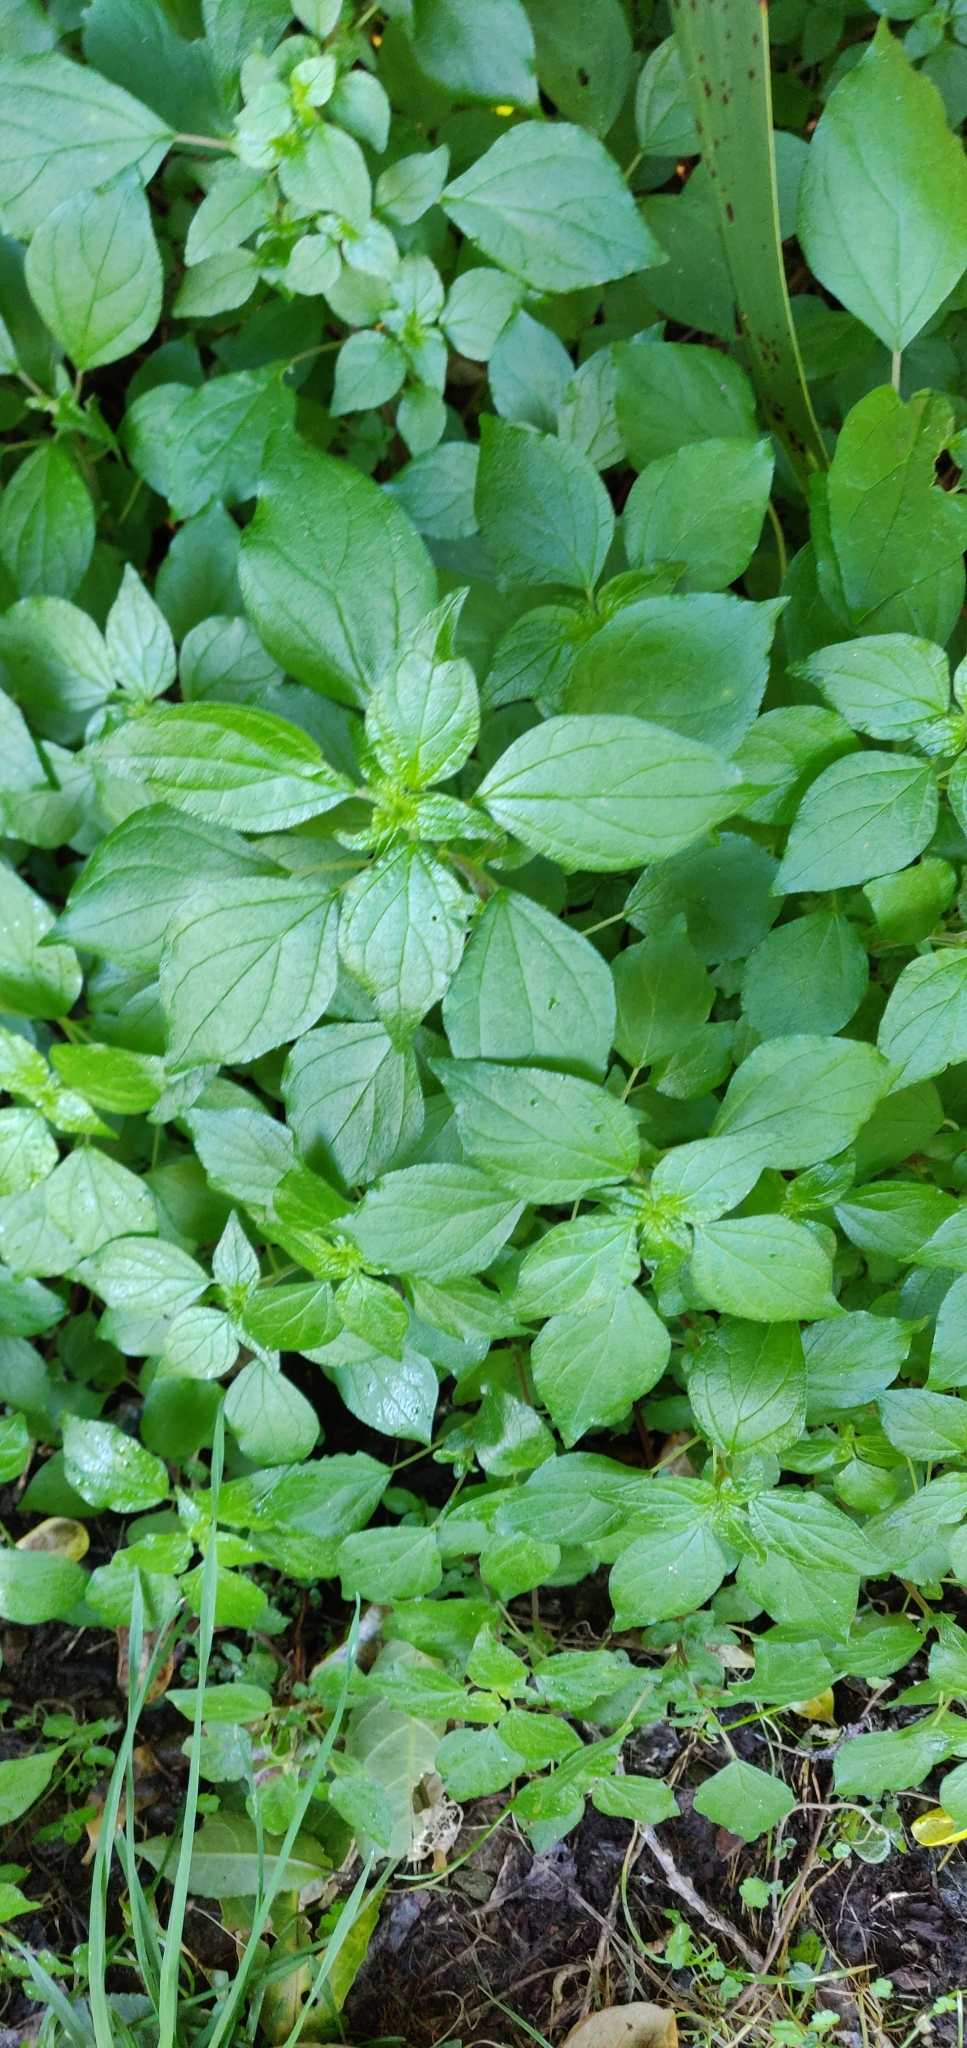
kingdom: Plantae
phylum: Tracheophyta
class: Magnoliopsida
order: Rosales
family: Urticaceae
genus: Parietaria
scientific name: Parietaria debilis
